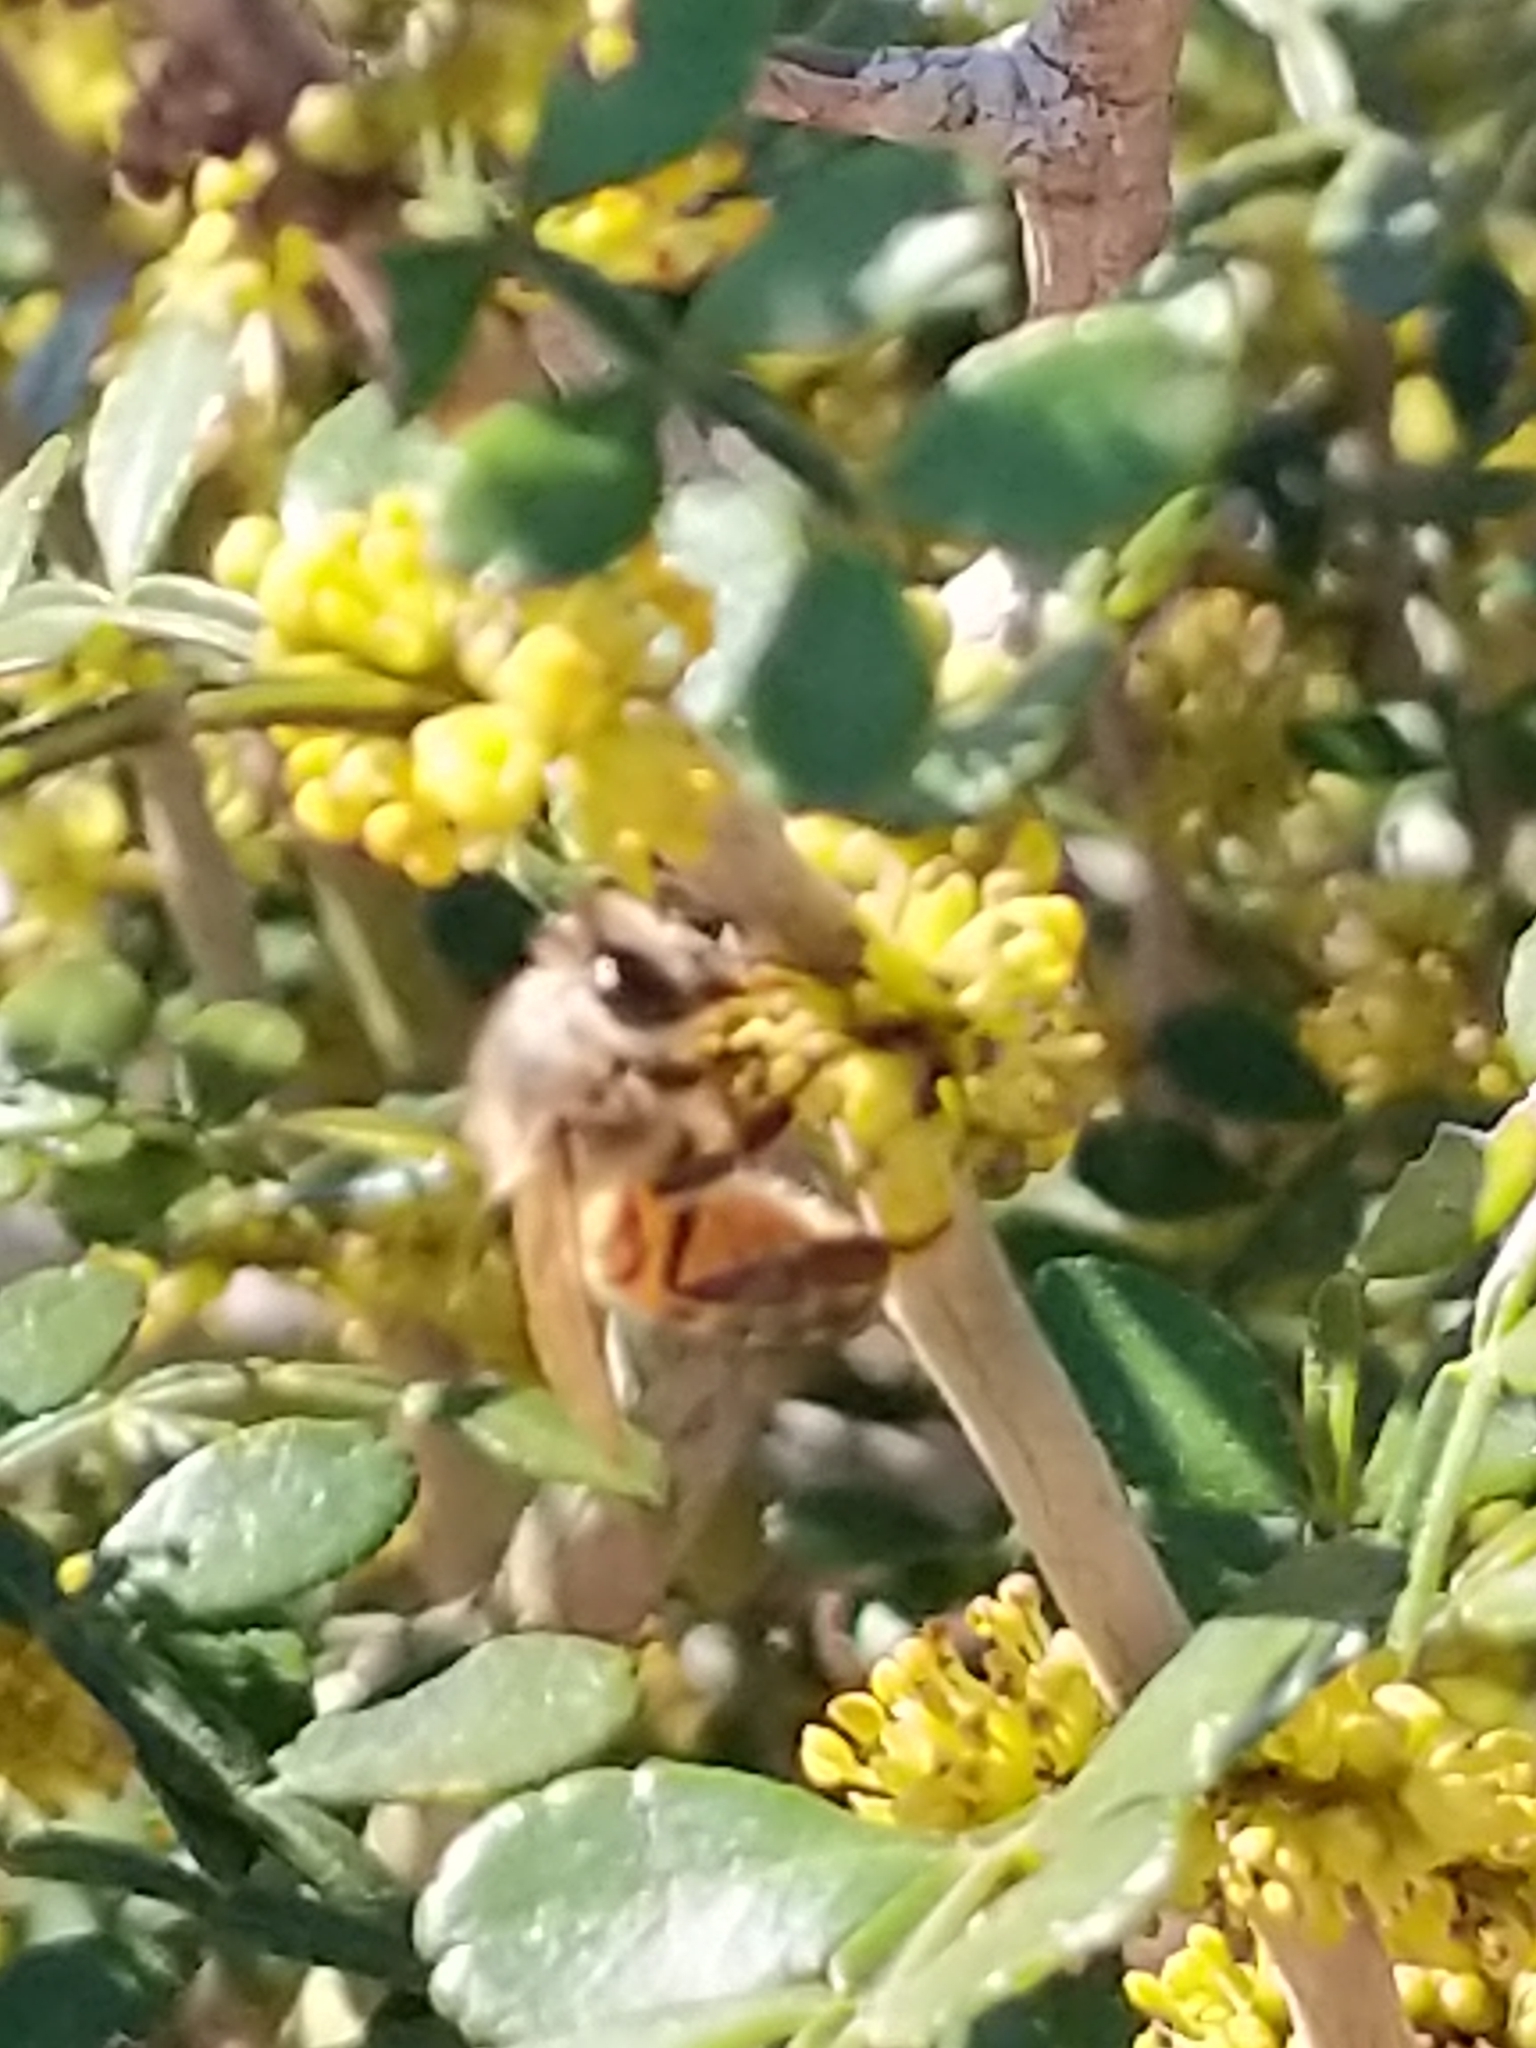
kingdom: Animalia
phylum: Arthropoda
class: Insecta
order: Hymenoptera
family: Apidae
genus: Apis
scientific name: Apis mellifera
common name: Honey bee
